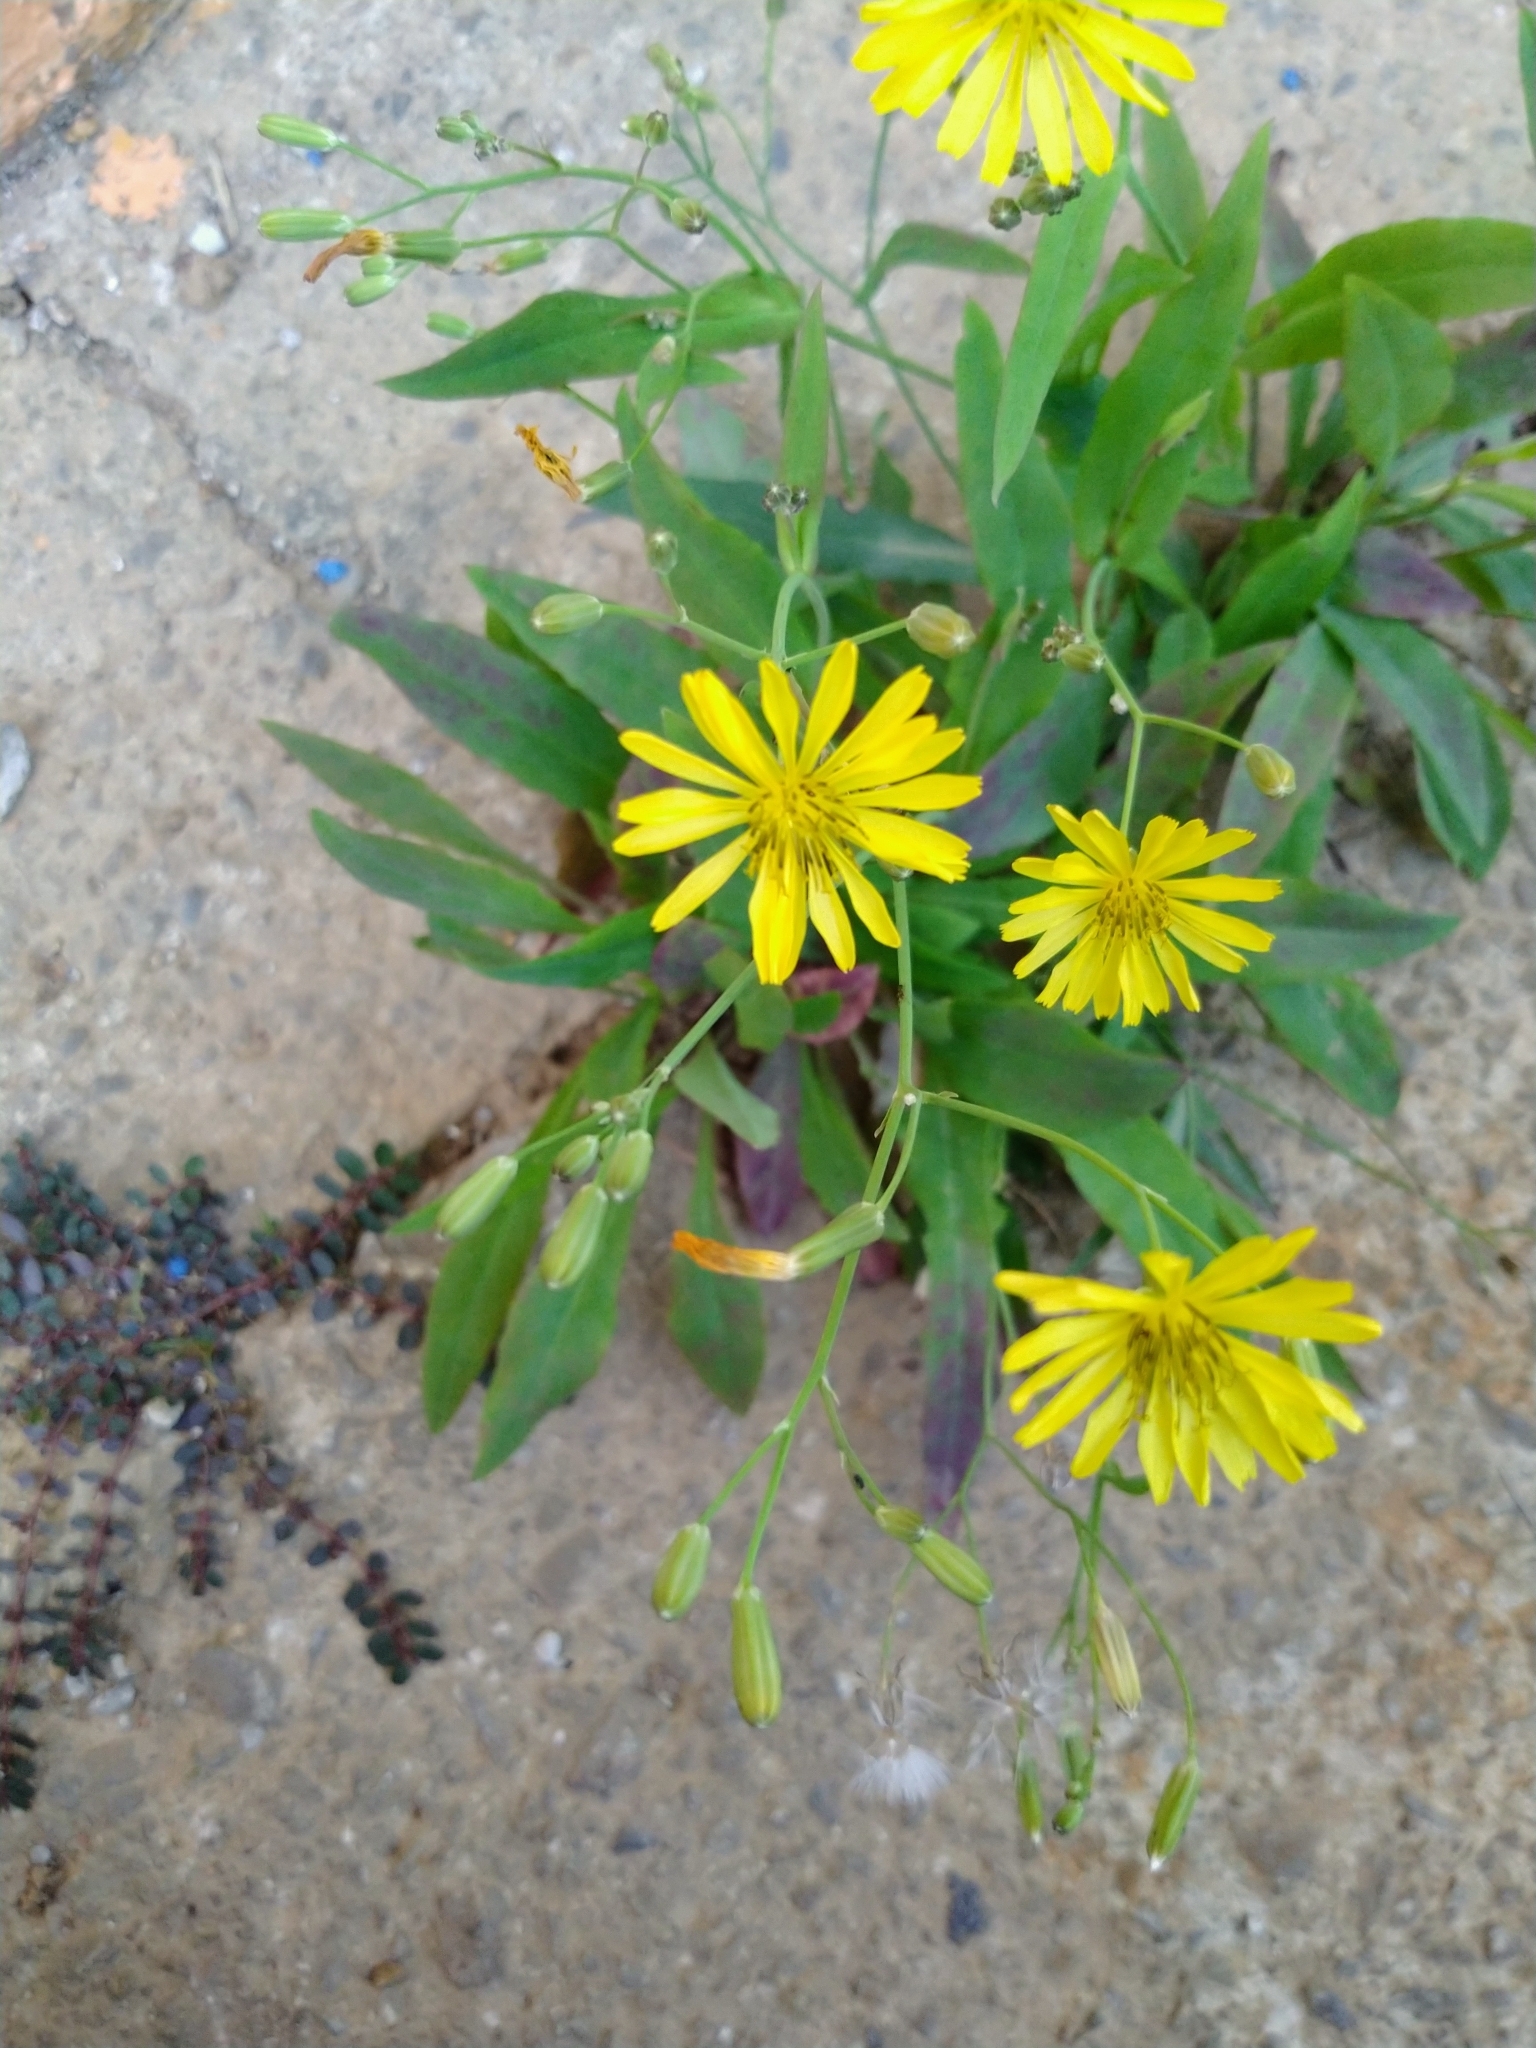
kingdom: Plantae
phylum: Tracheophyta
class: Magnoliopsida
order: Asterales
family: Asteraceae
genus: Ixeris
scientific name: Ixeris chinensis
